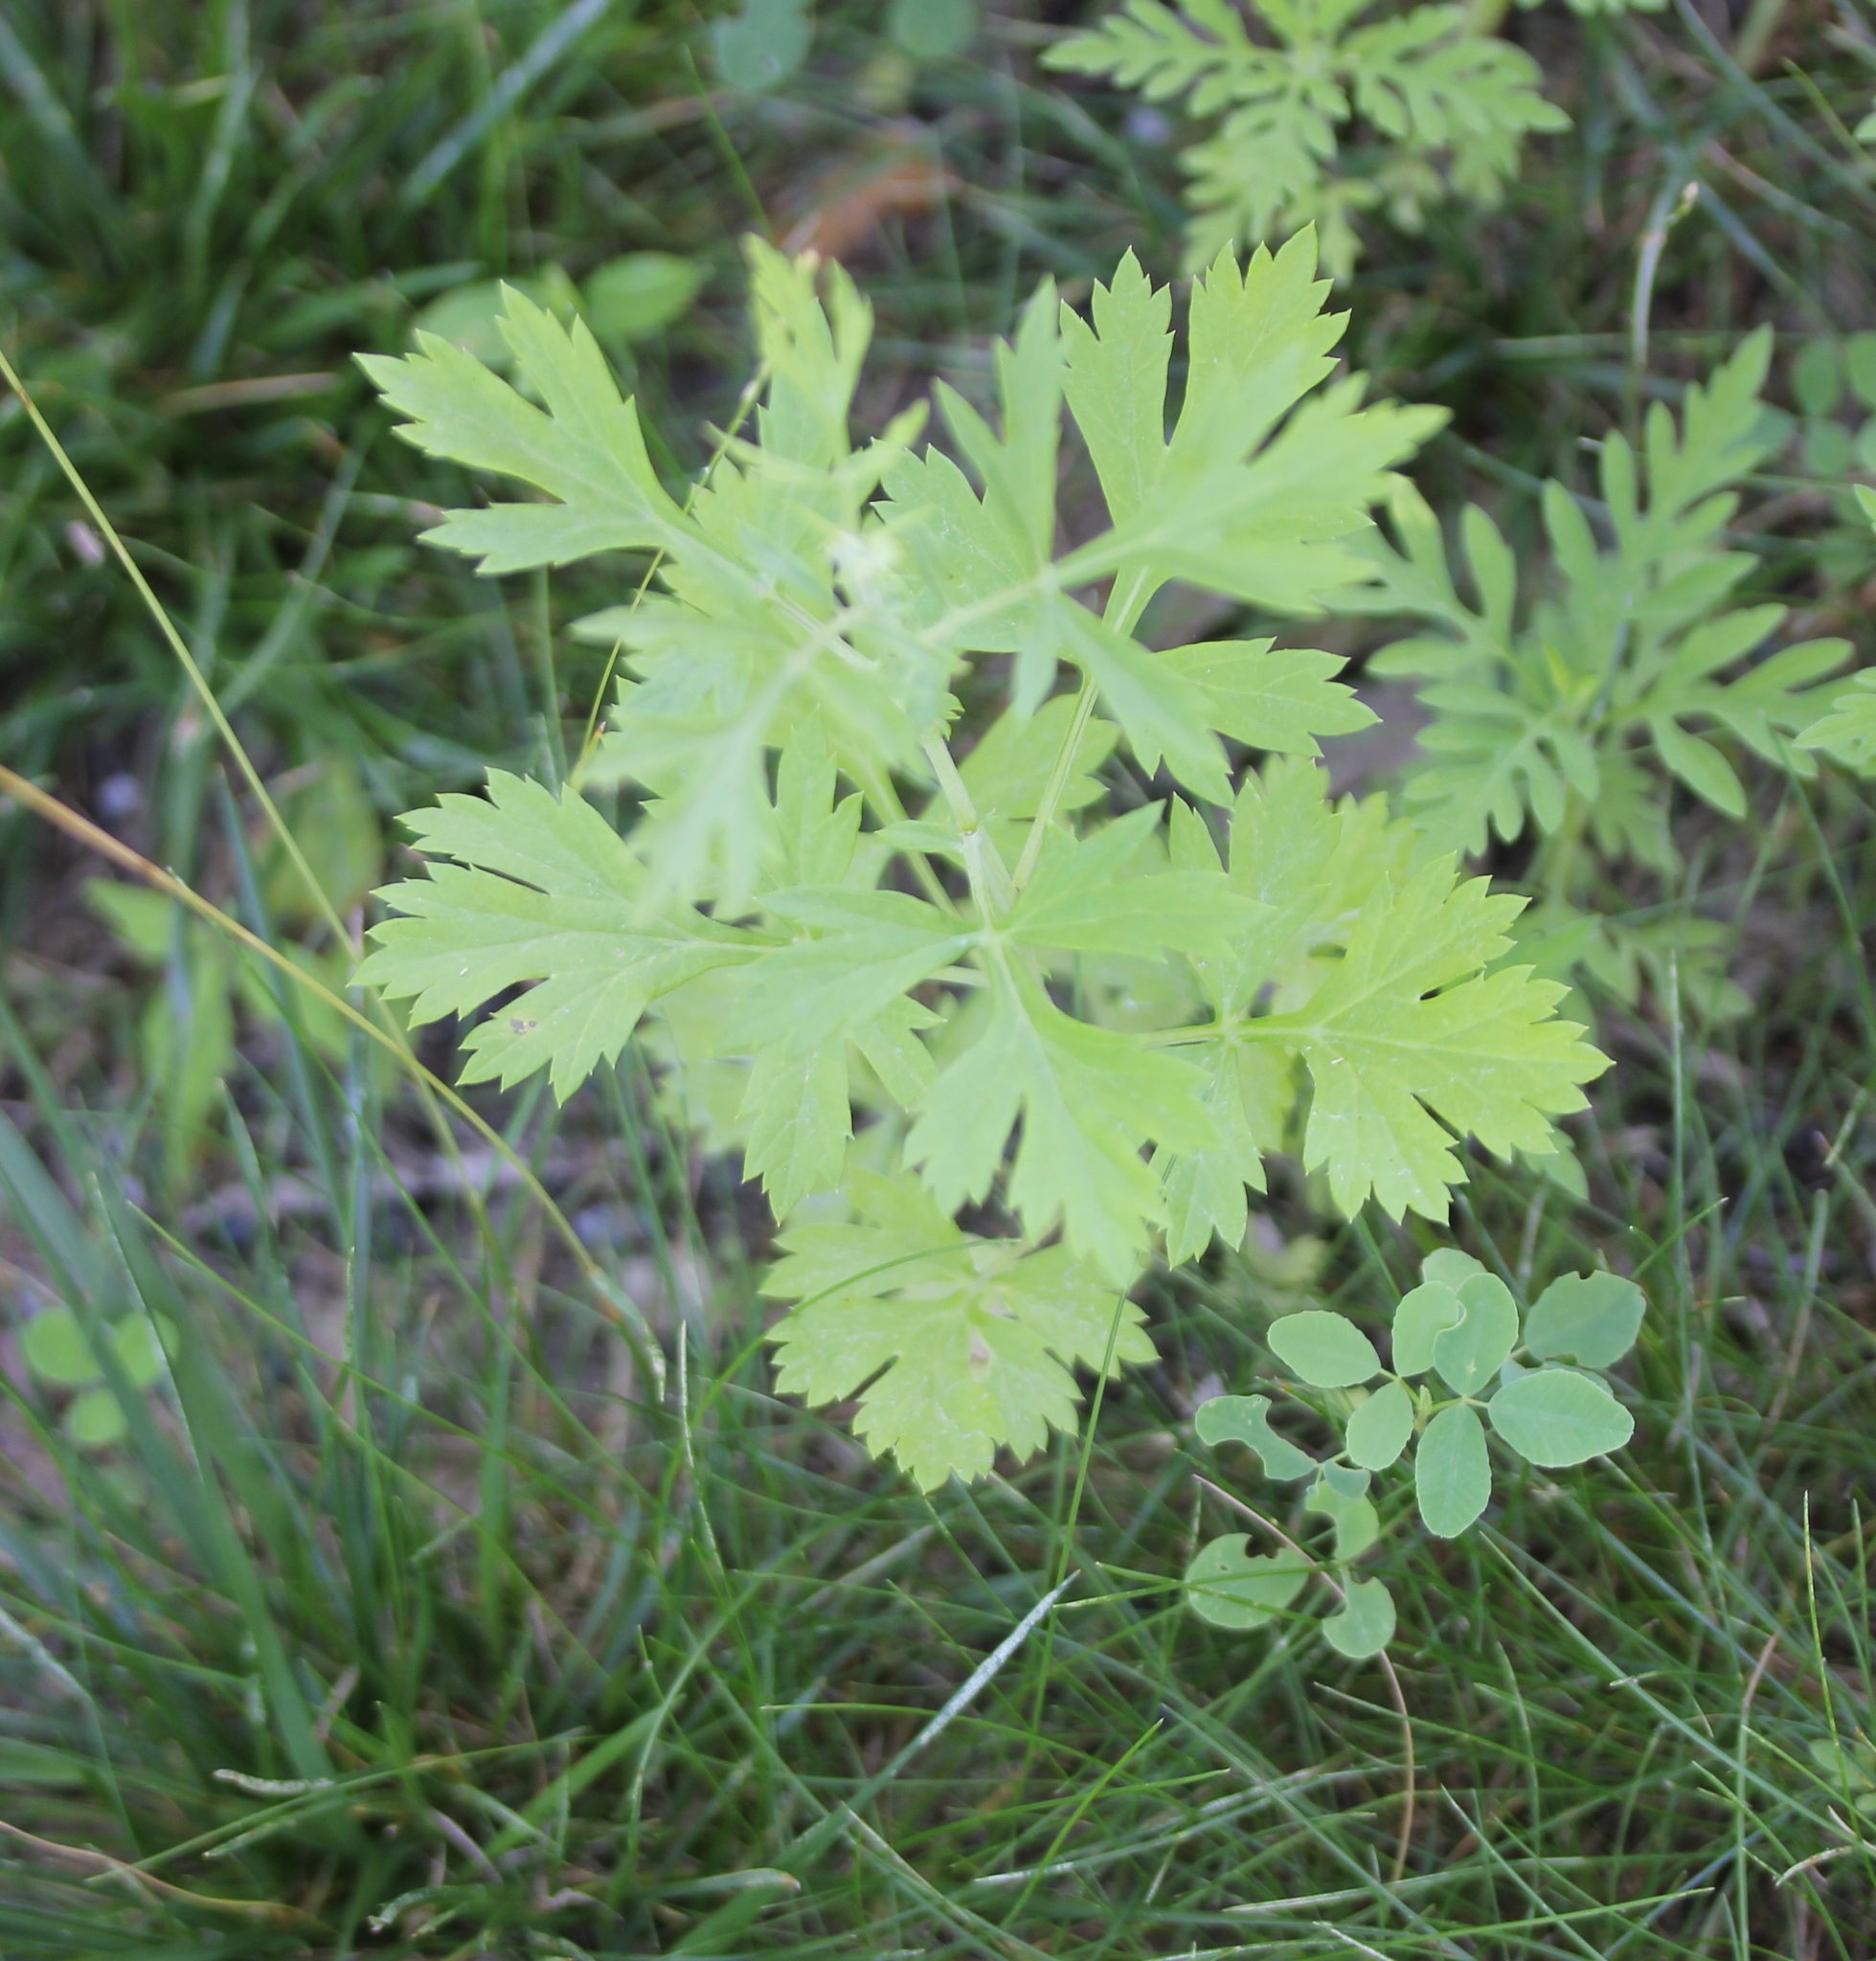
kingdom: Plantae
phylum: Tracheophyta
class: Magnoliopsida
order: Asterales
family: Asteraceae
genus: Artemisia
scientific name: Artemisia vulgaris
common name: Mugwort
